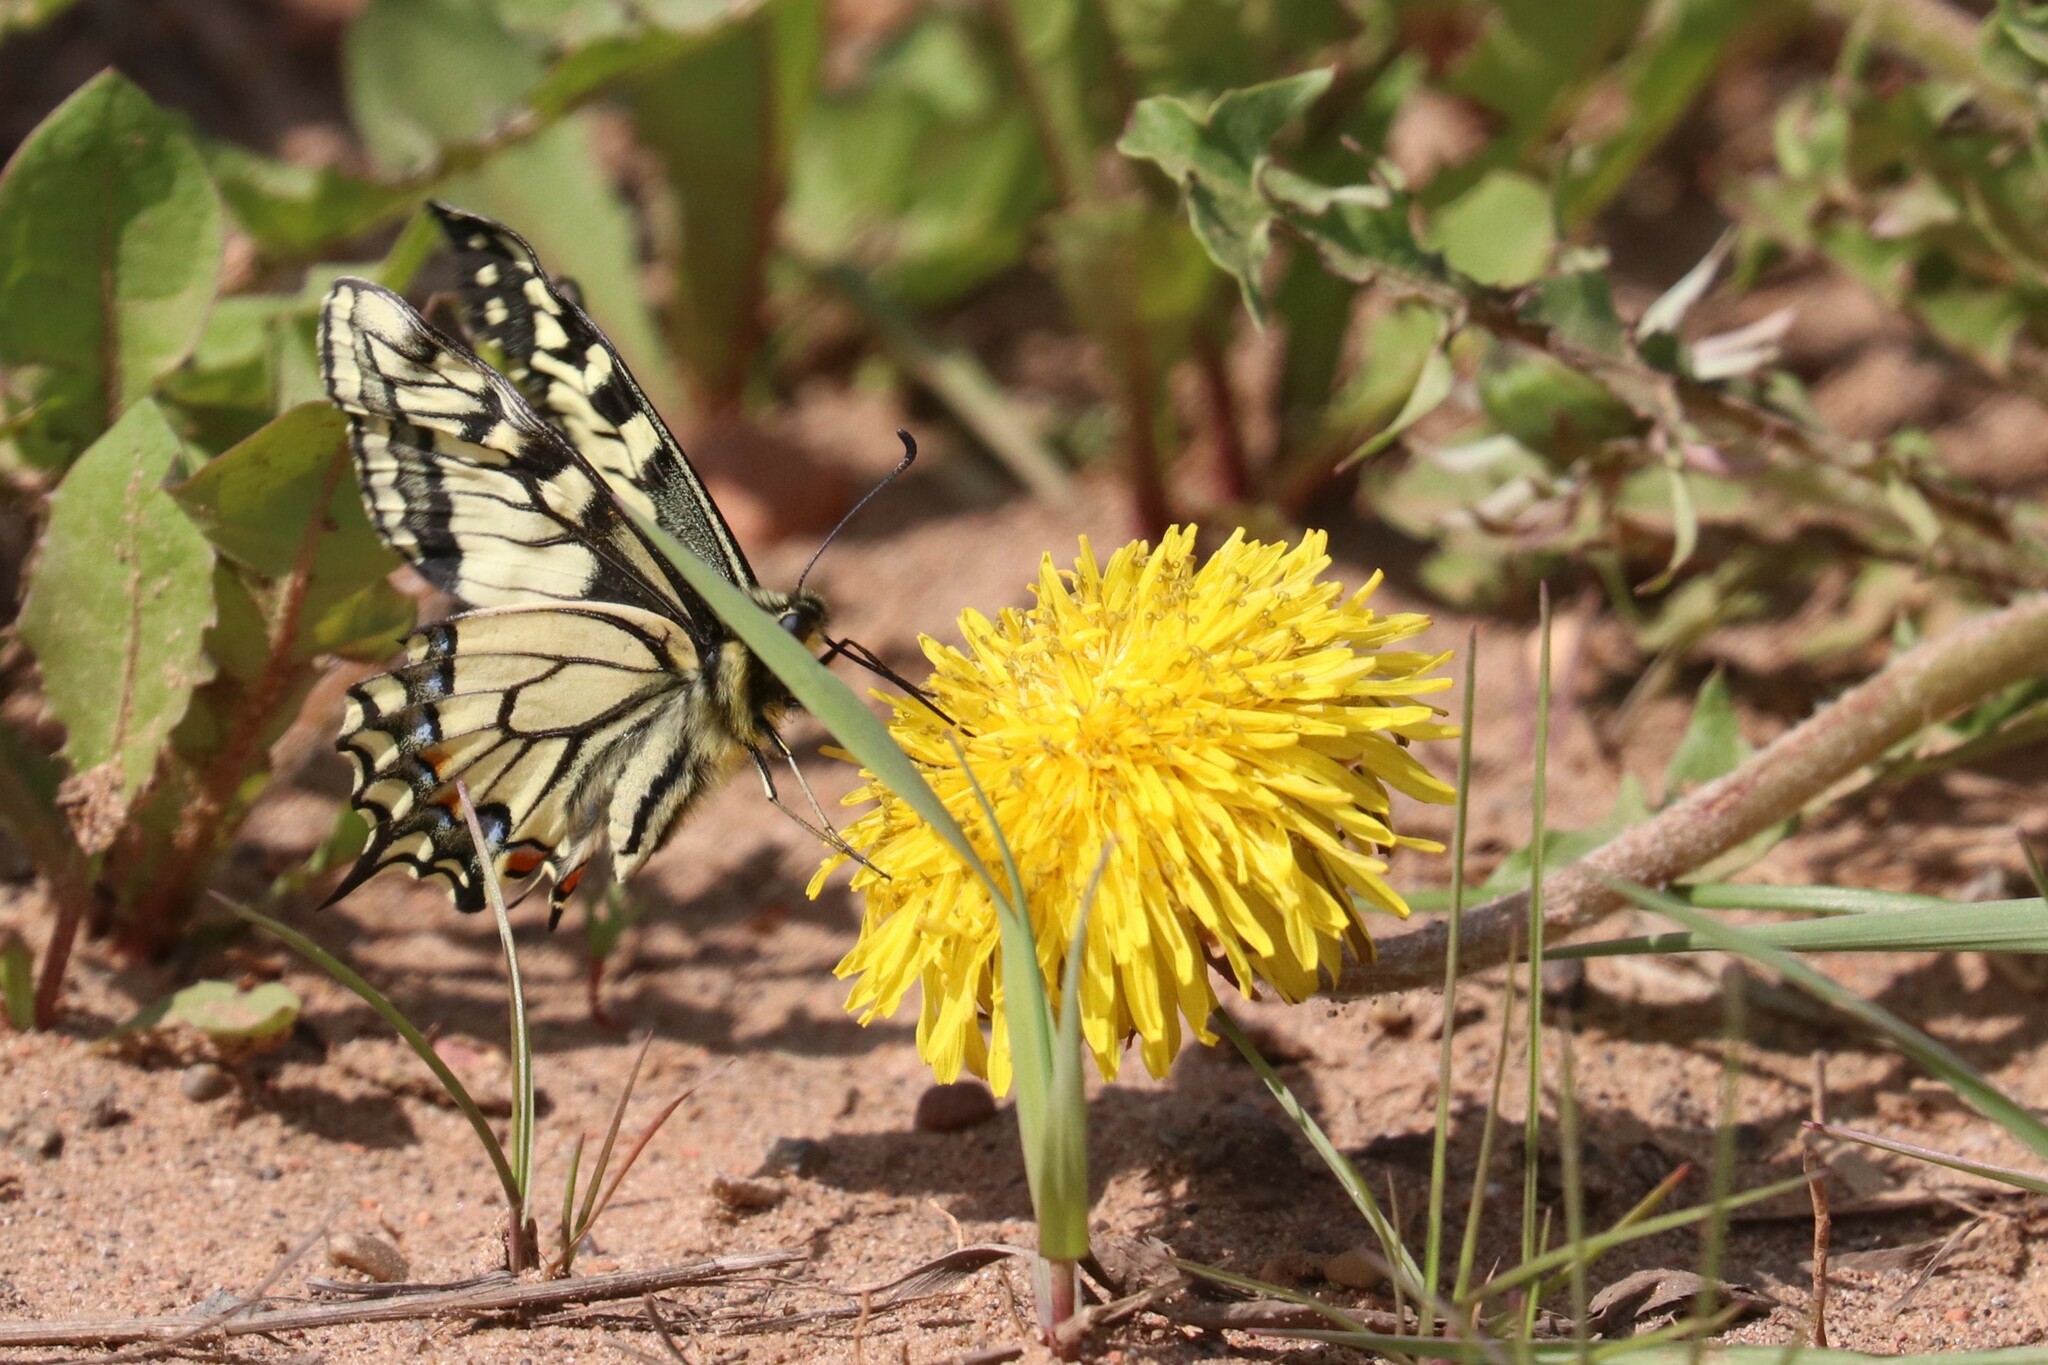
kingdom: Animalia
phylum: Arthropoda
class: Insecta
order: Lepidoptera
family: Papilionidae
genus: Papilio
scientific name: Papilio machaon
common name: Swallowtail
